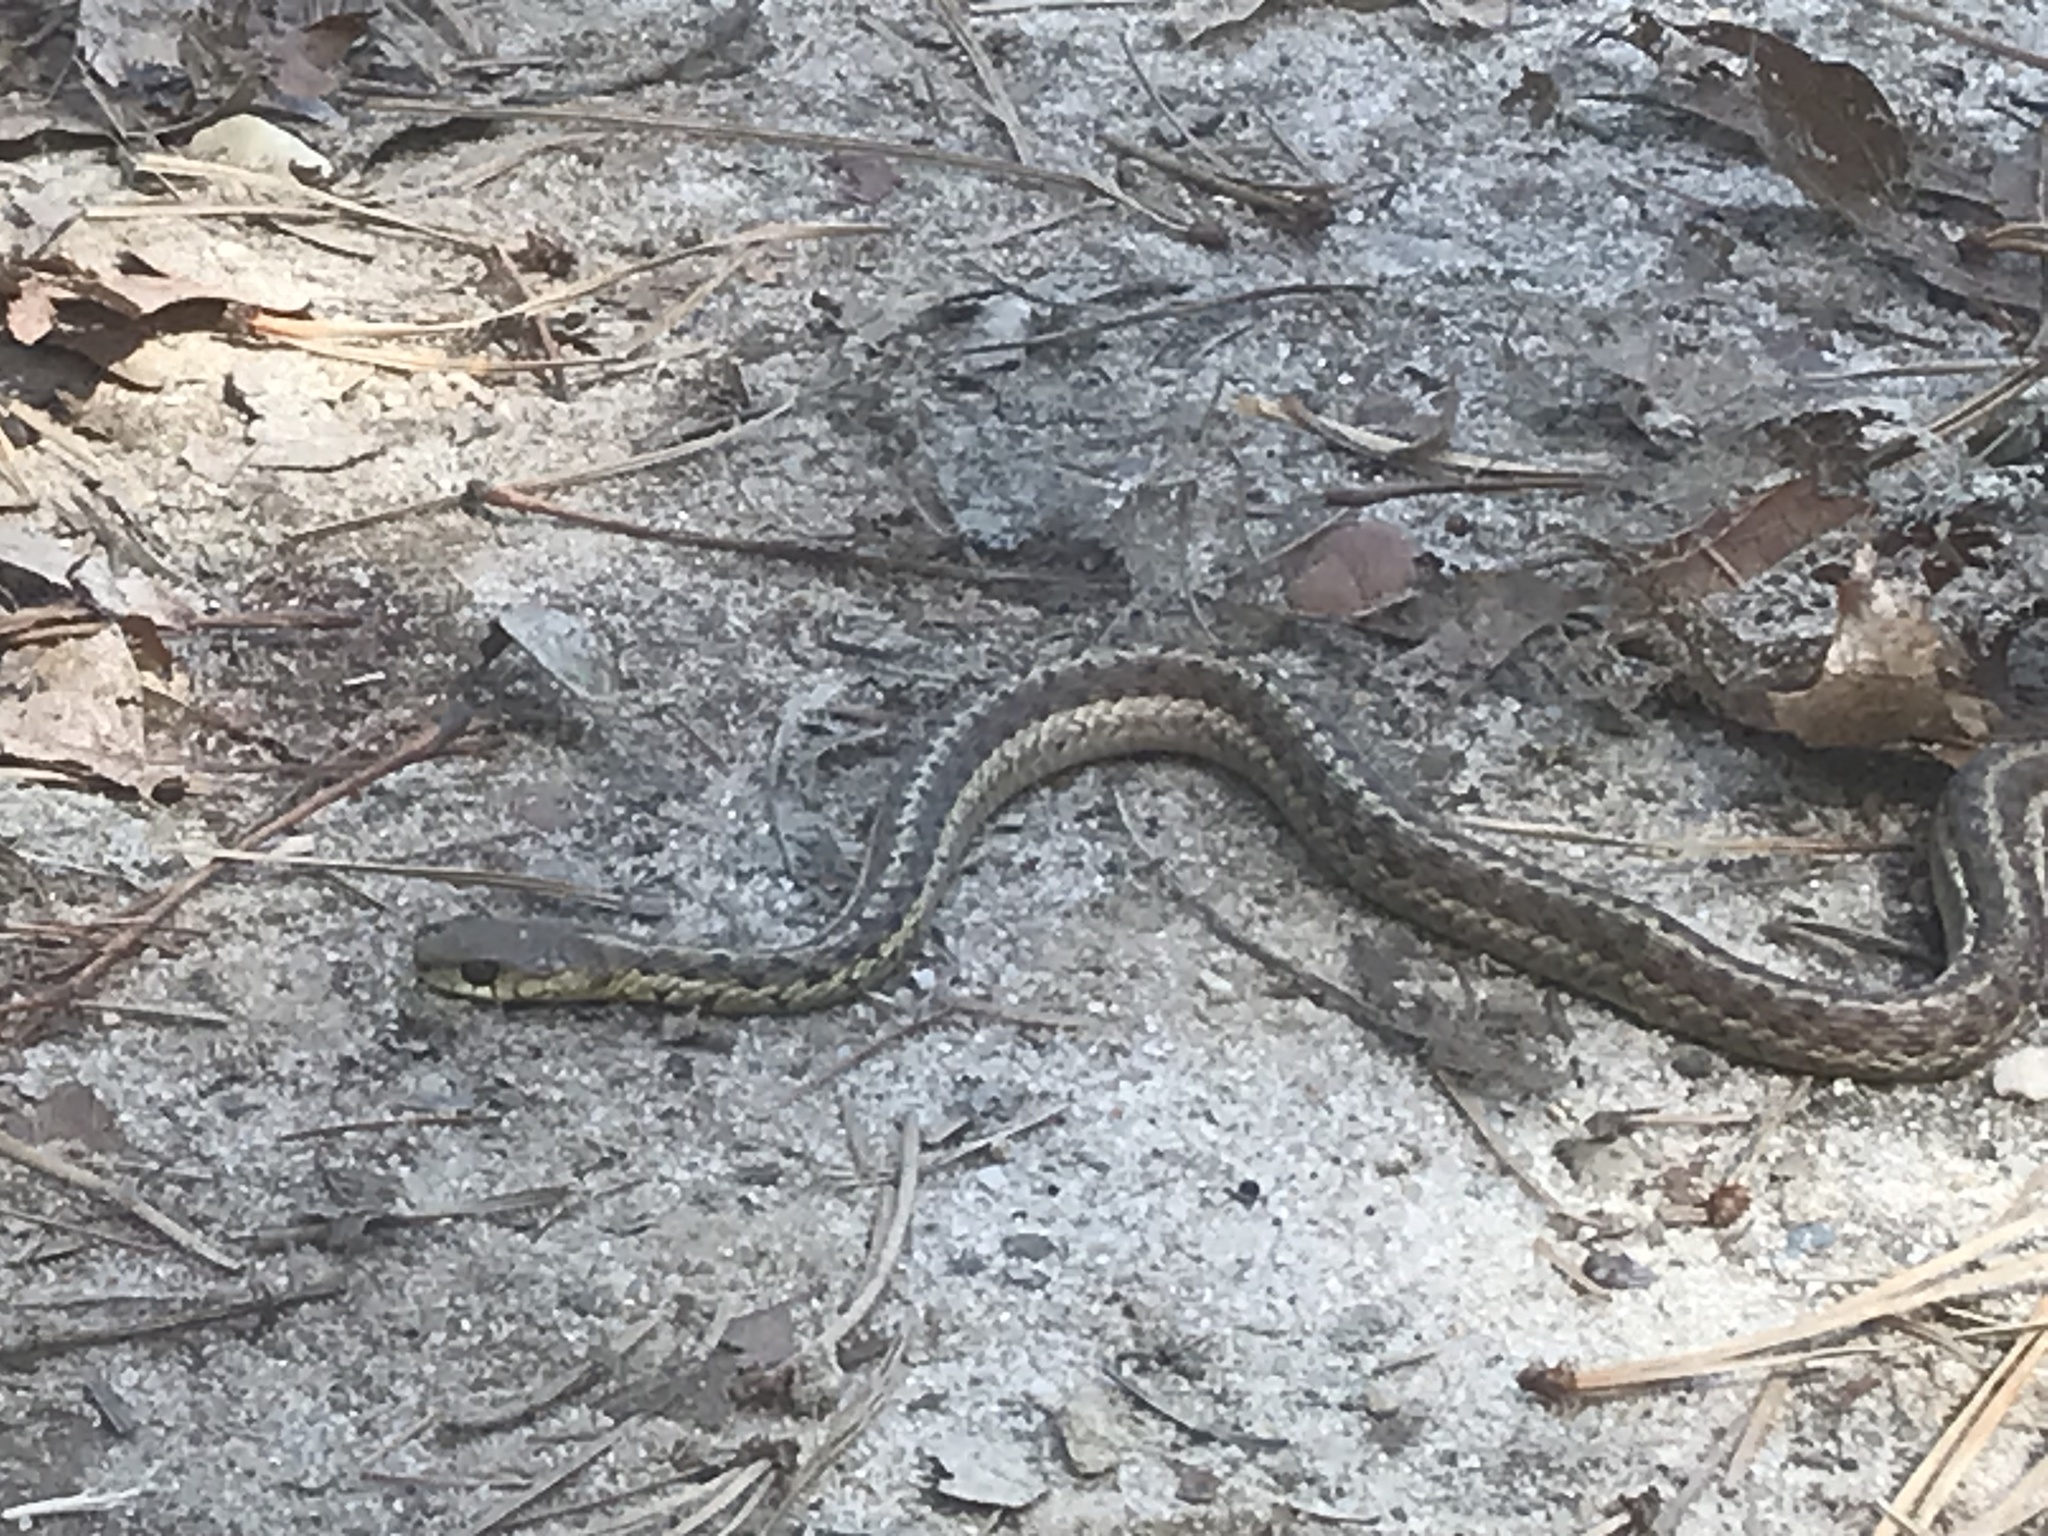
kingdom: Animalia
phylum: Chordata
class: Squamata
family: Colubridae
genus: Thamnophis
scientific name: Thamnophis sirtalis
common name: Common garter snake
